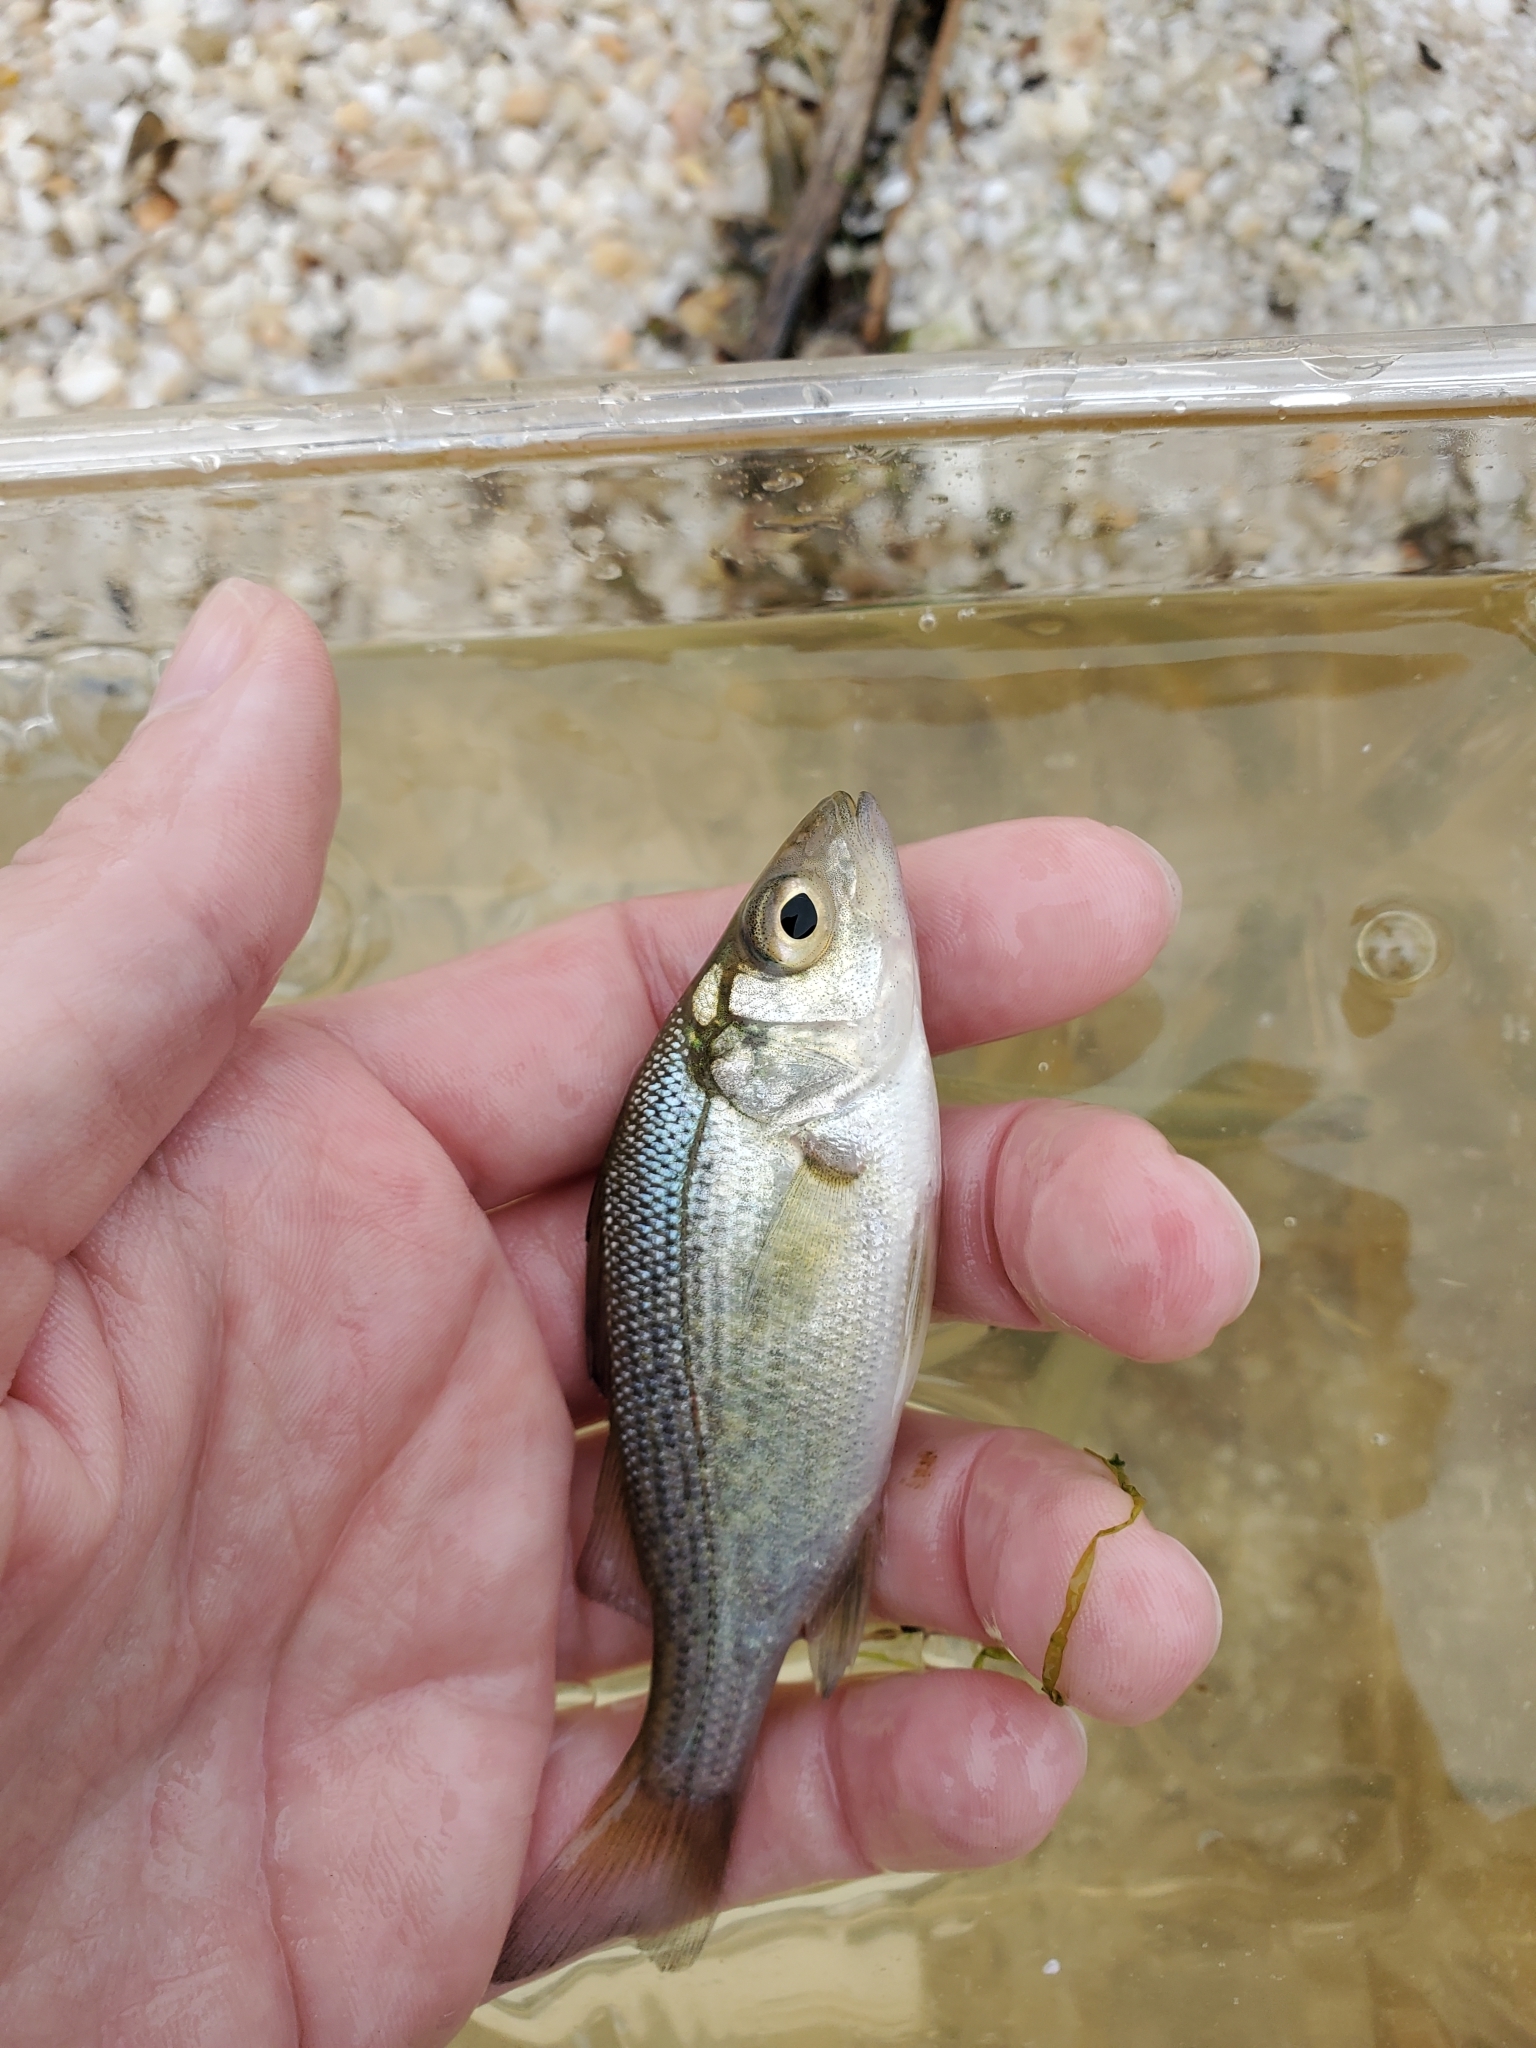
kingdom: Animalia
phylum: Chordata
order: Perciformes
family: Moronidae
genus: Morone
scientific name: Morone americana
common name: White perch
